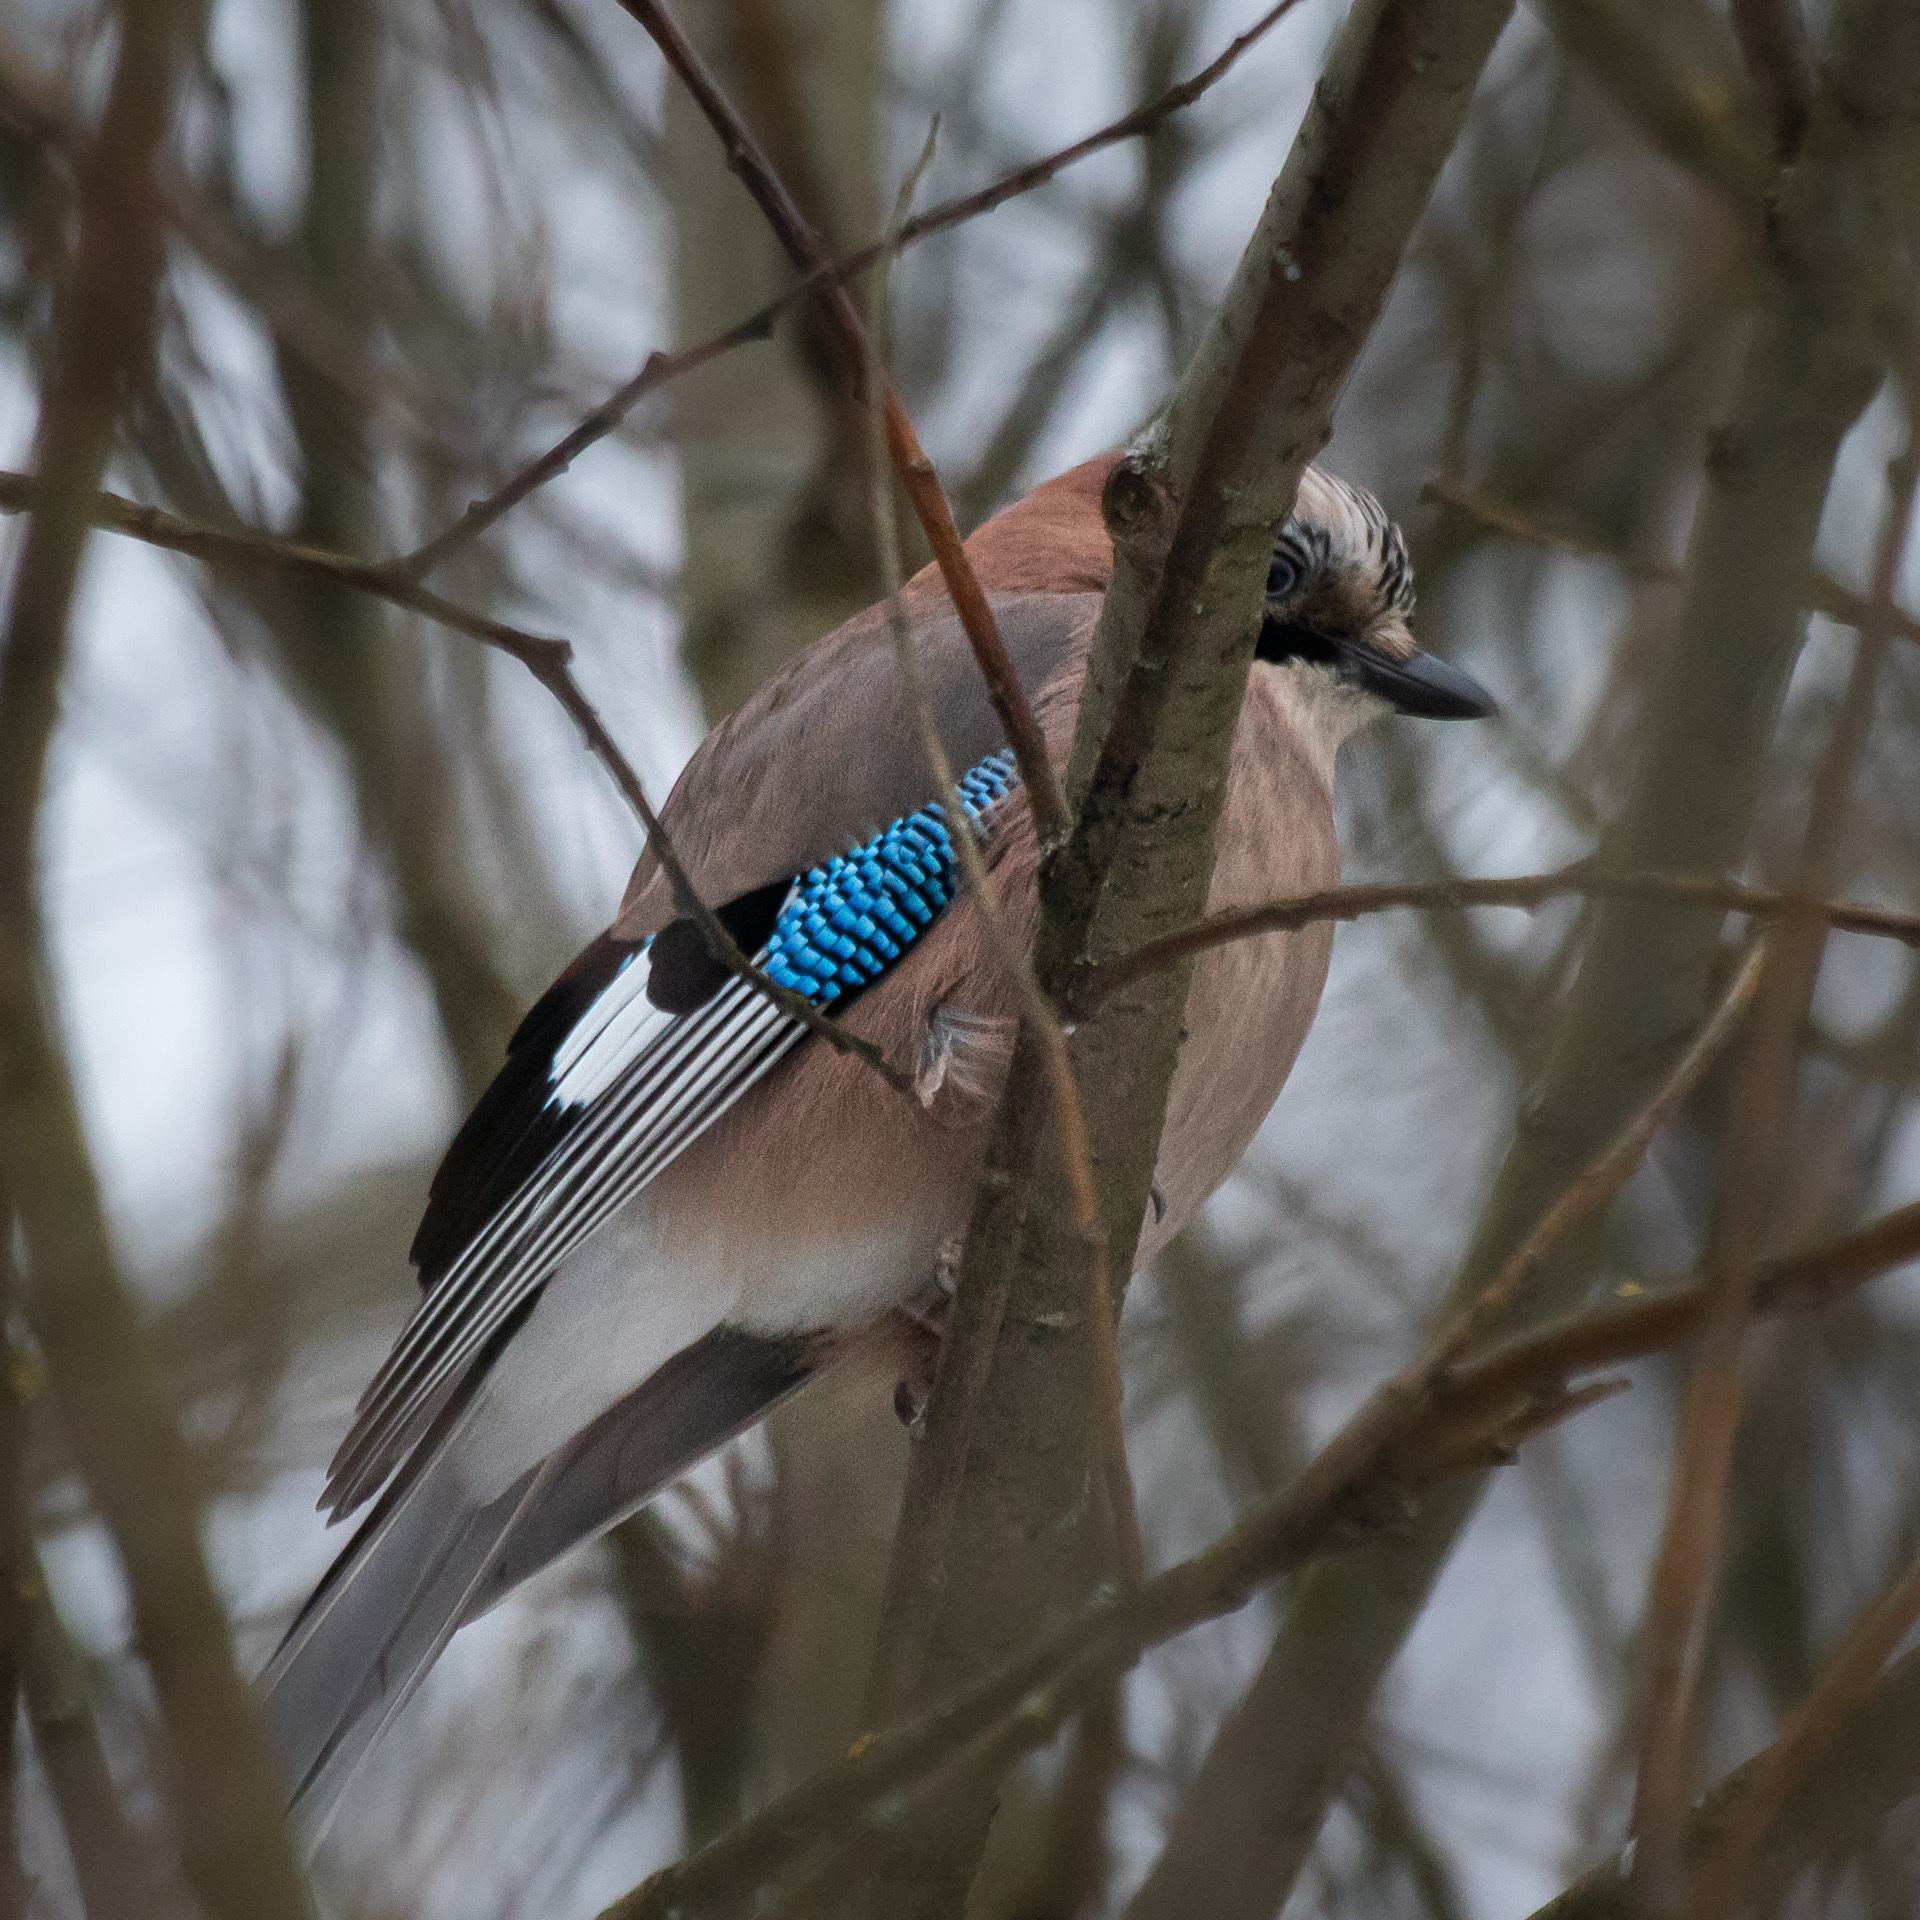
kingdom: Animalia
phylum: Chordata
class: Aves
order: Passeriformes
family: Corvidae
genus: Garrulus
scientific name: Garrulus glandarius
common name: Eurasian jay
